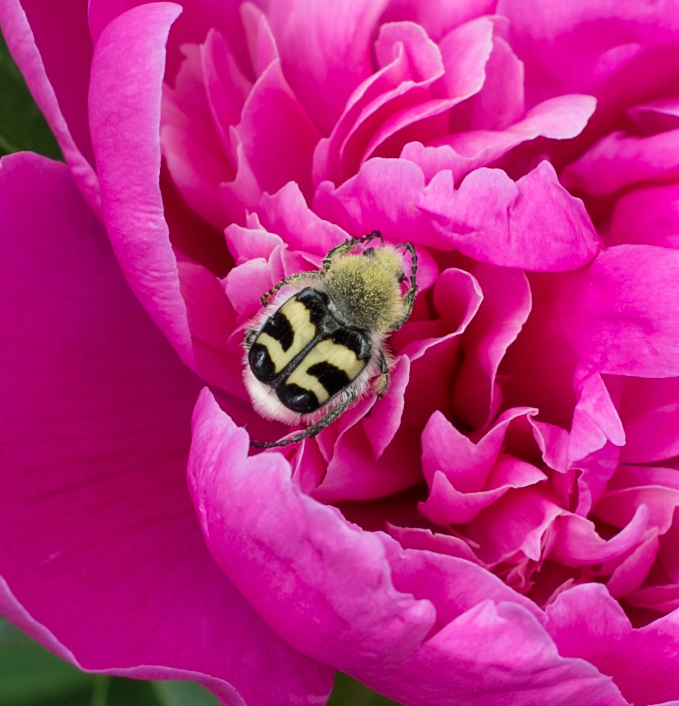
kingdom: Animalia
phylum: Arthropoda
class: Insecta
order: Coleoptera
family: Scarabaeidae
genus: Trichius
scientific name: Trichius fasciatus
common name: Bee beetle
